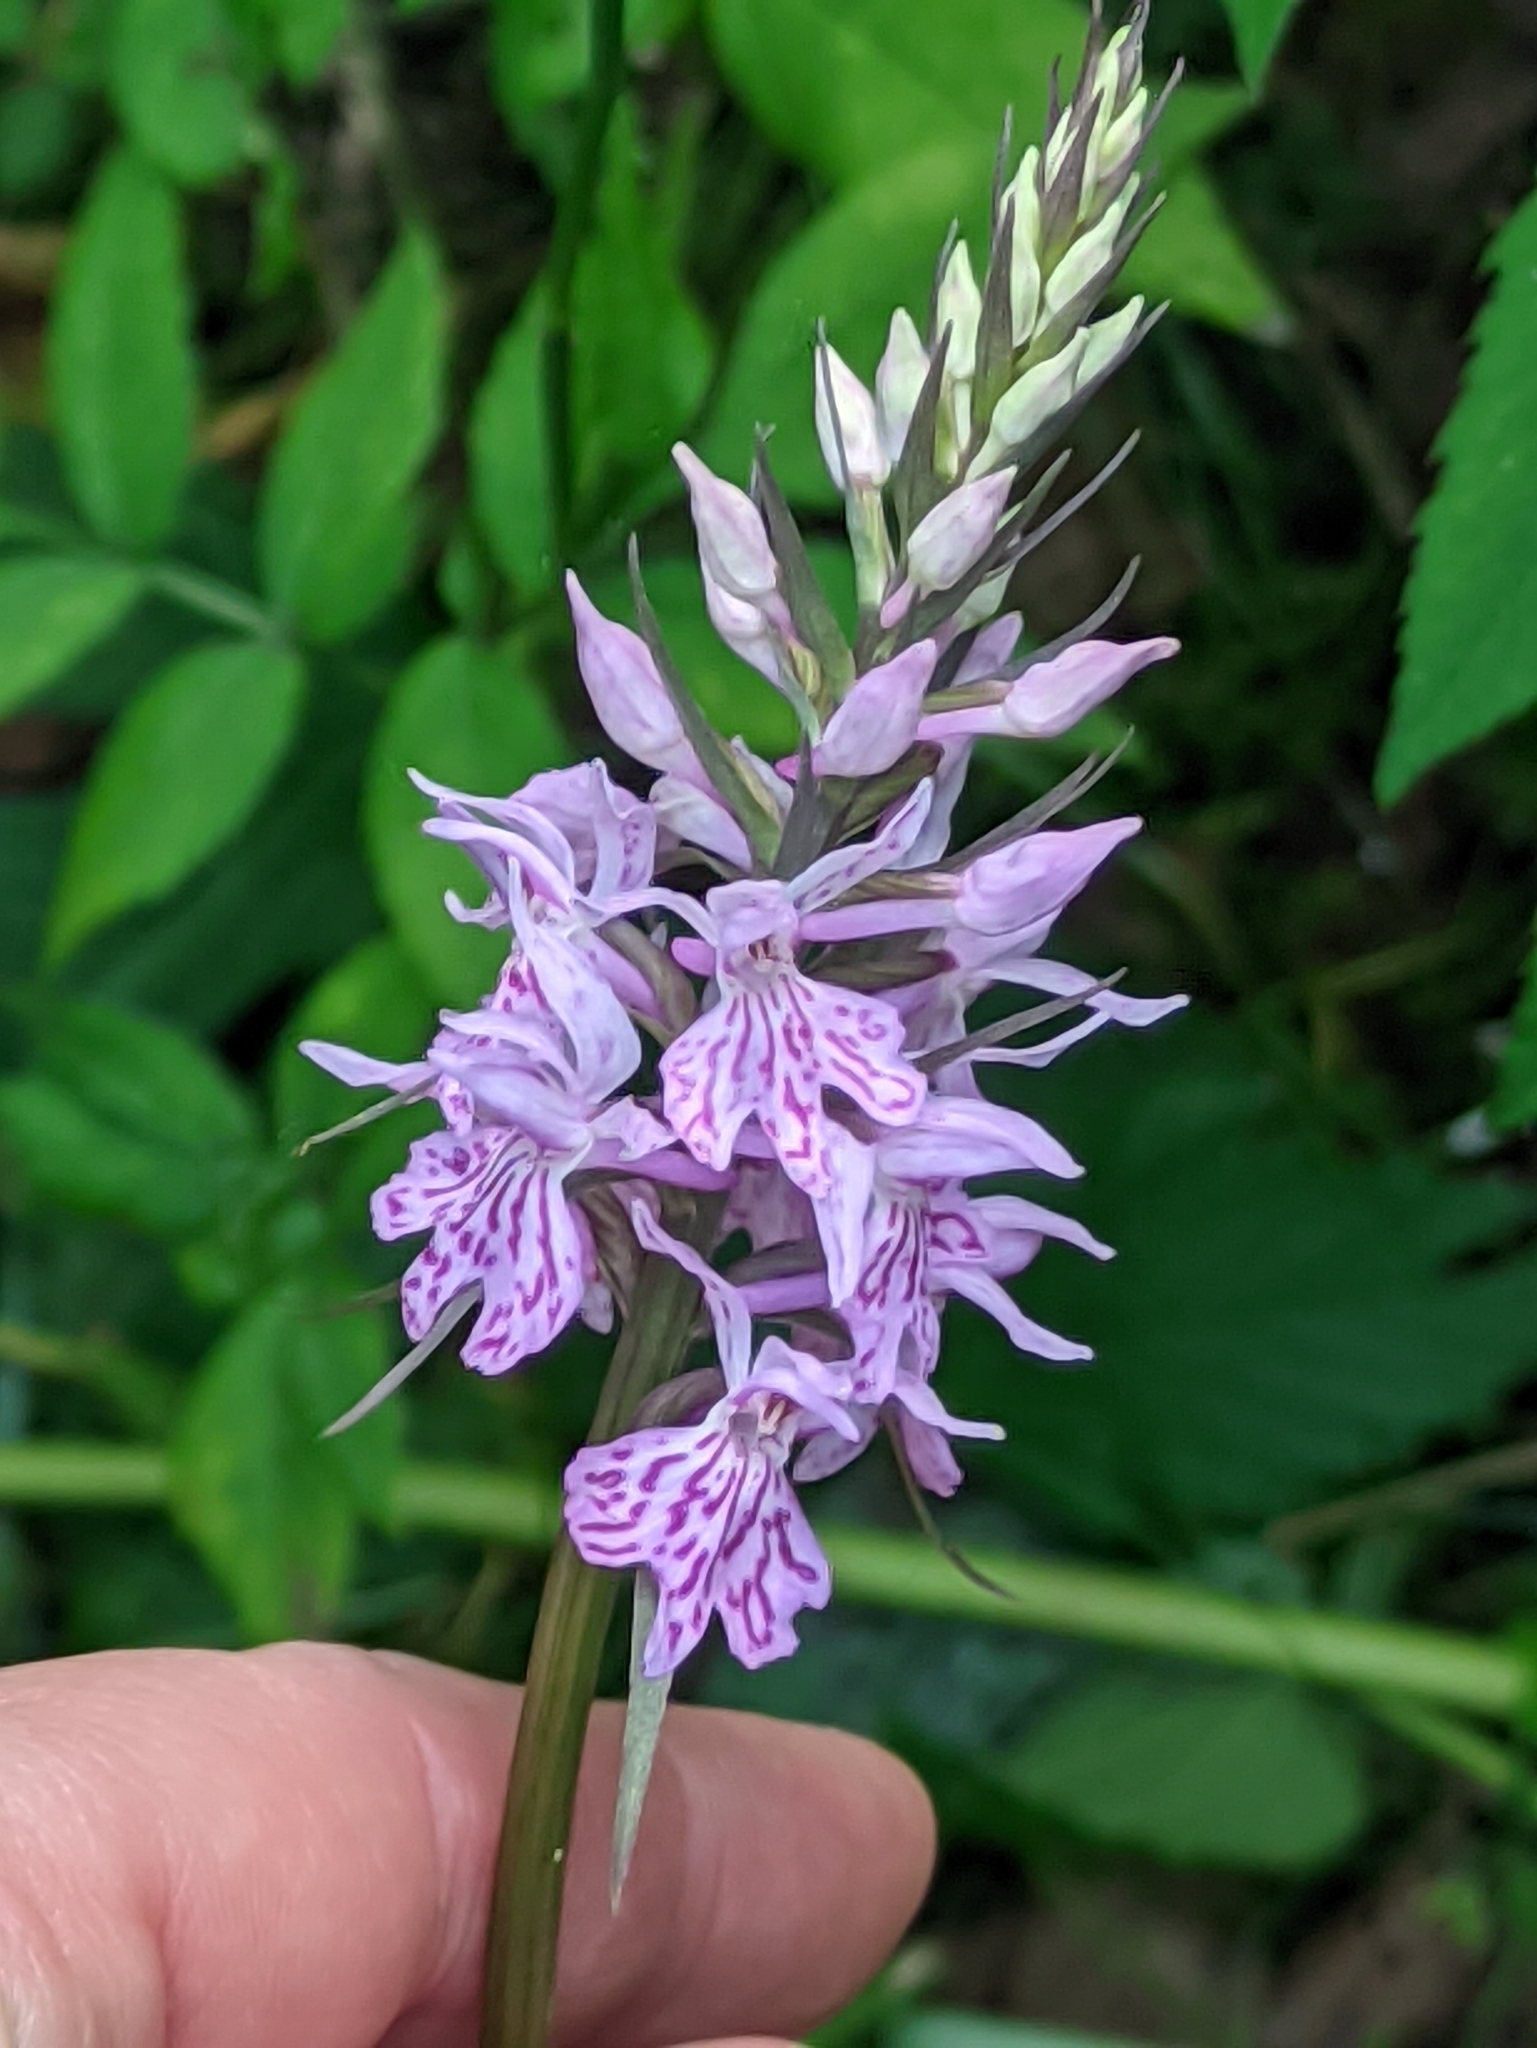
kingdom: Plantae
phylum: Tracheophyta
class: Liliopsida
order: Asparagales
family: Orchidaceae
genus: Dactylorhiza
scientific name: Dactylorhiza maculata
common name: Heath spotted-orchid
